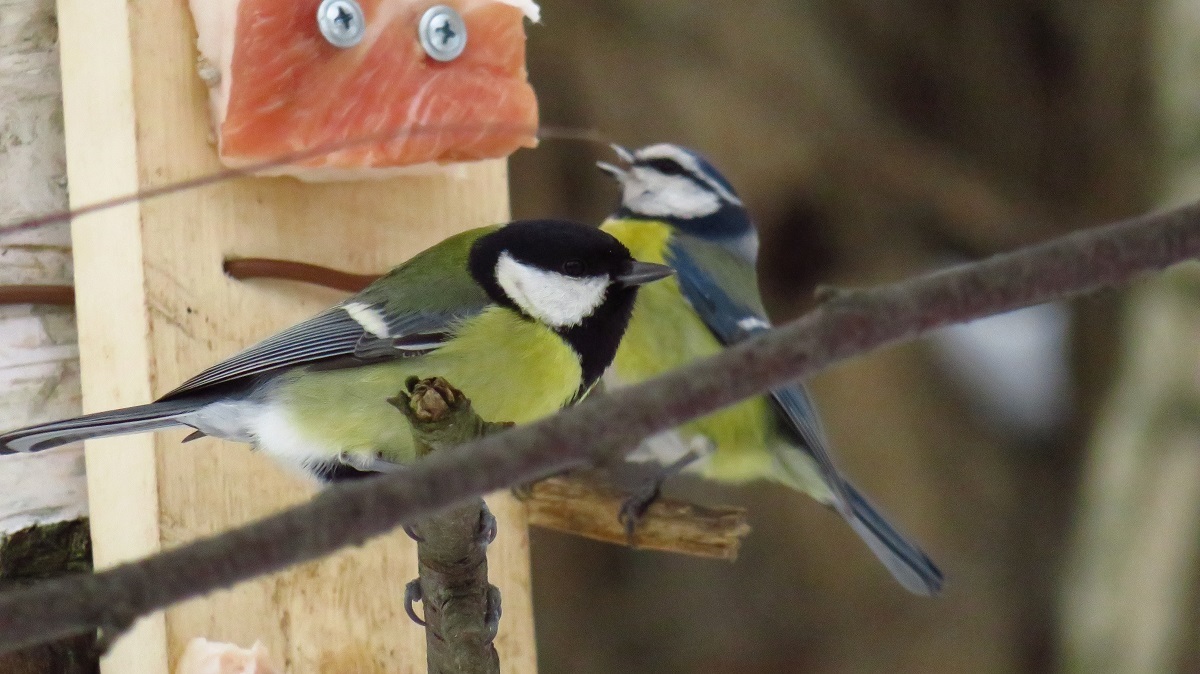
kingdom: Animalia
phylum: Chordata
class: Aves
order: Passeriformes
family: Paridae
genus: Parus
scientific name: Parus major
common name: Great tit
